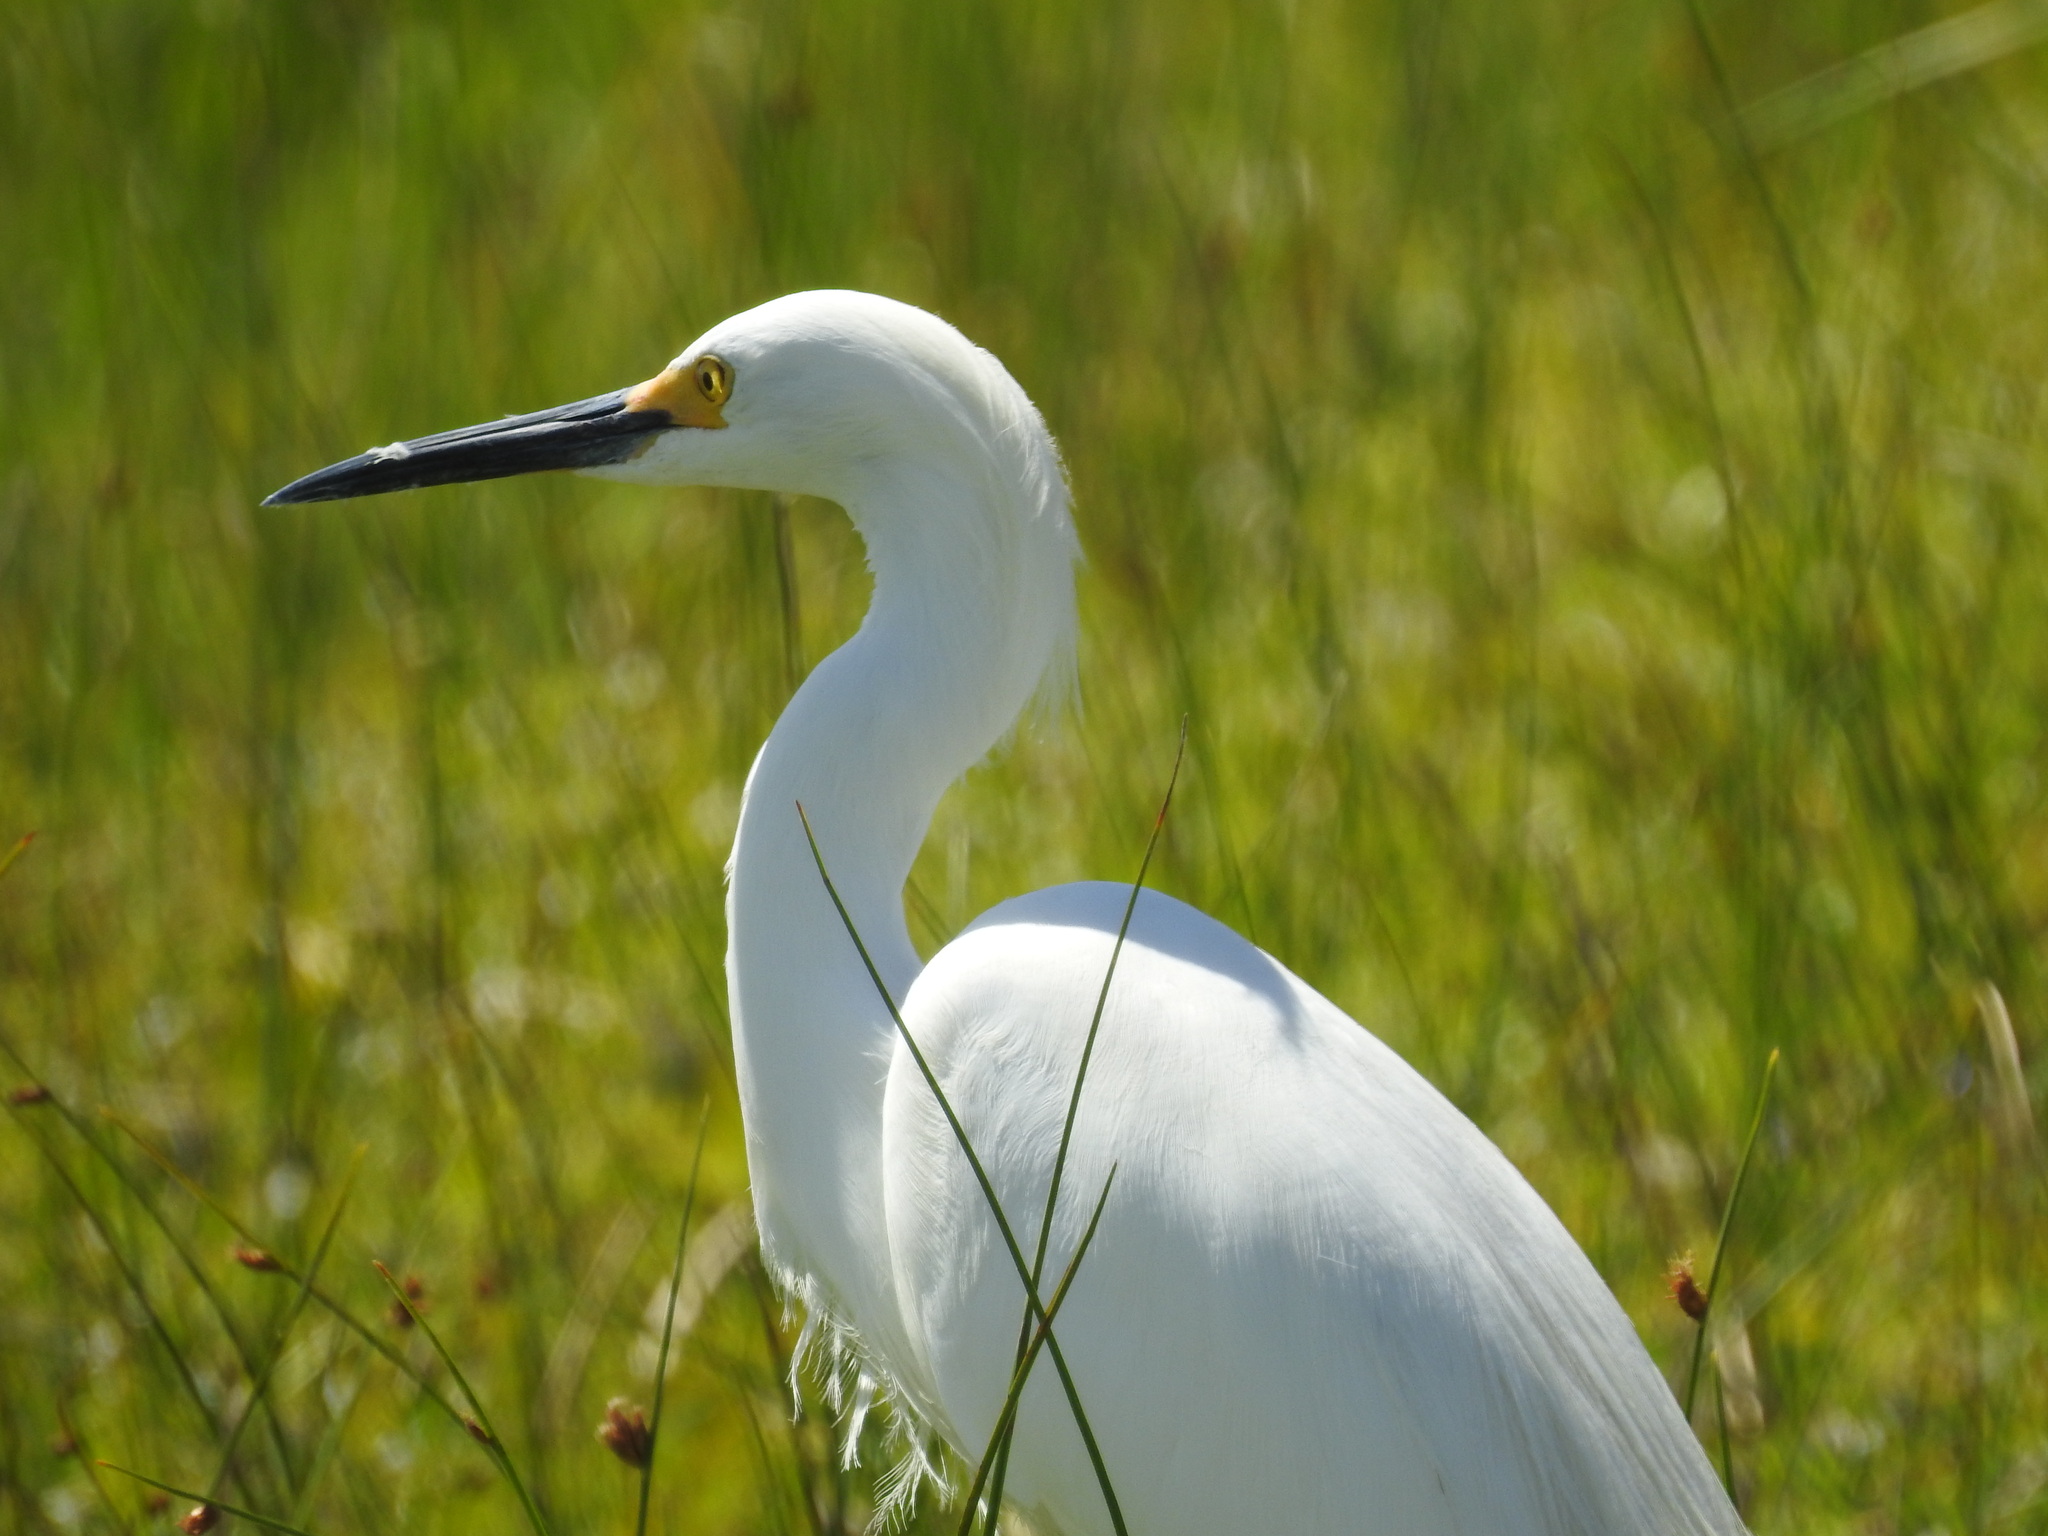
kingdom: Animalia
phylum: Chordata
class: Aves
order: Pelecaniformes
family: Ardeidae
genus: Egretta
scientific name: Egretta thula
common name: Snowy egret
